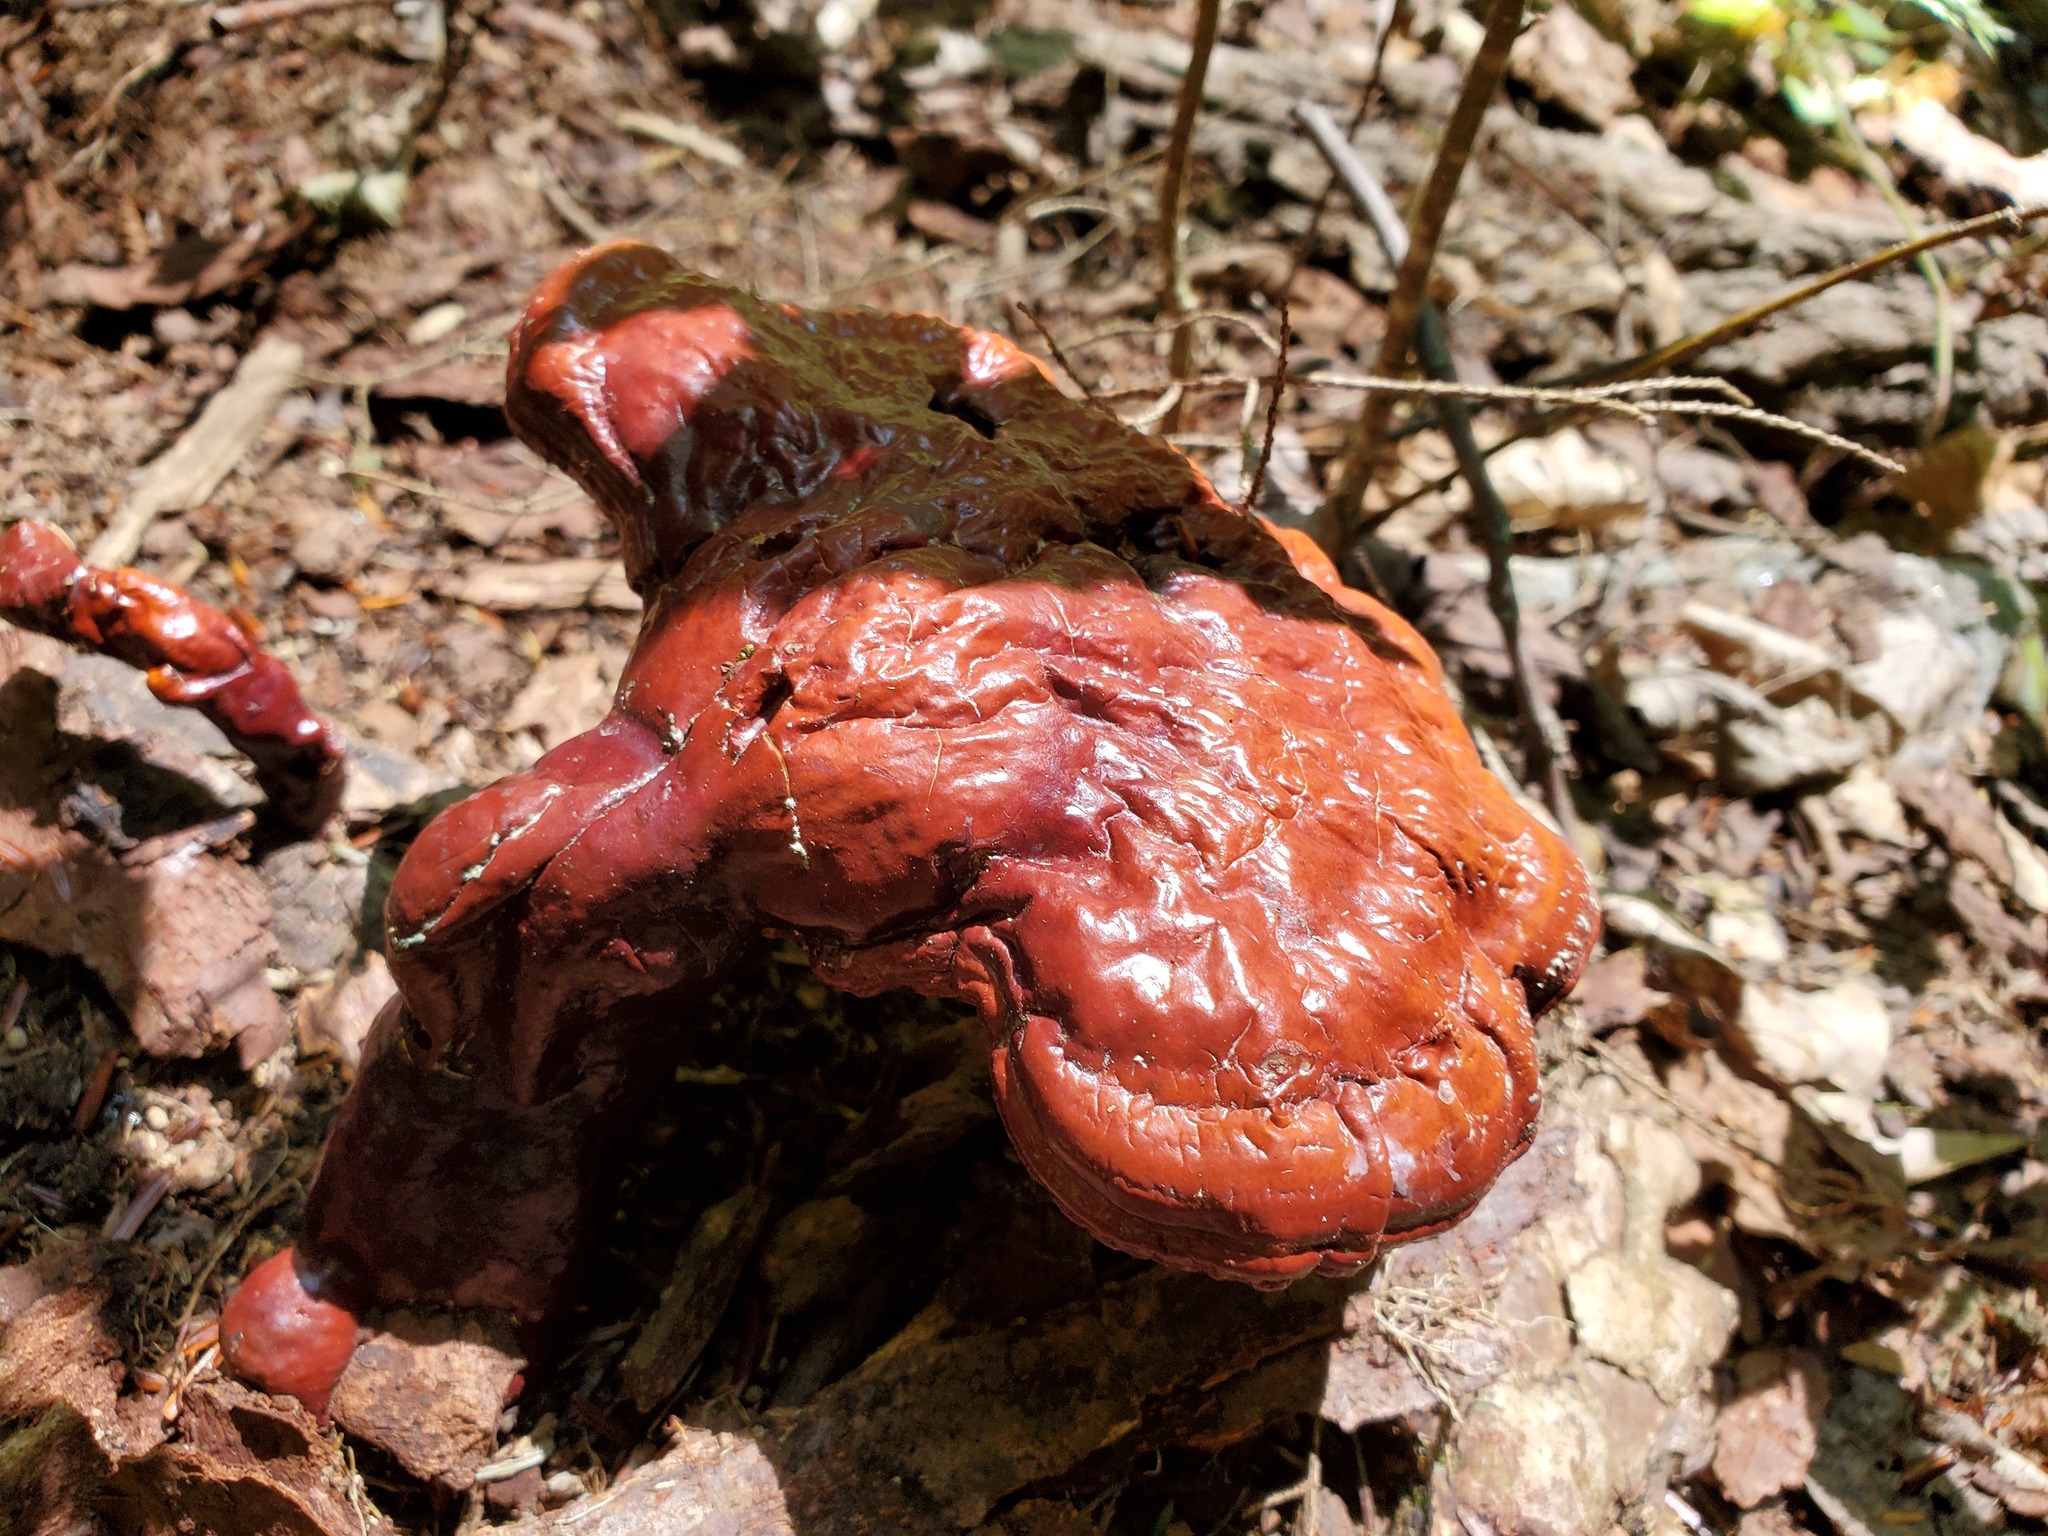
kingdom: Fungi
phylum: Basidiomycota
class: Agaricomycetes
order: Polyporales
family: Polyporaceae
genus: Ganoderma
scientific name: Ganoderma tsugae
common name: Hemlock varnish shelf
